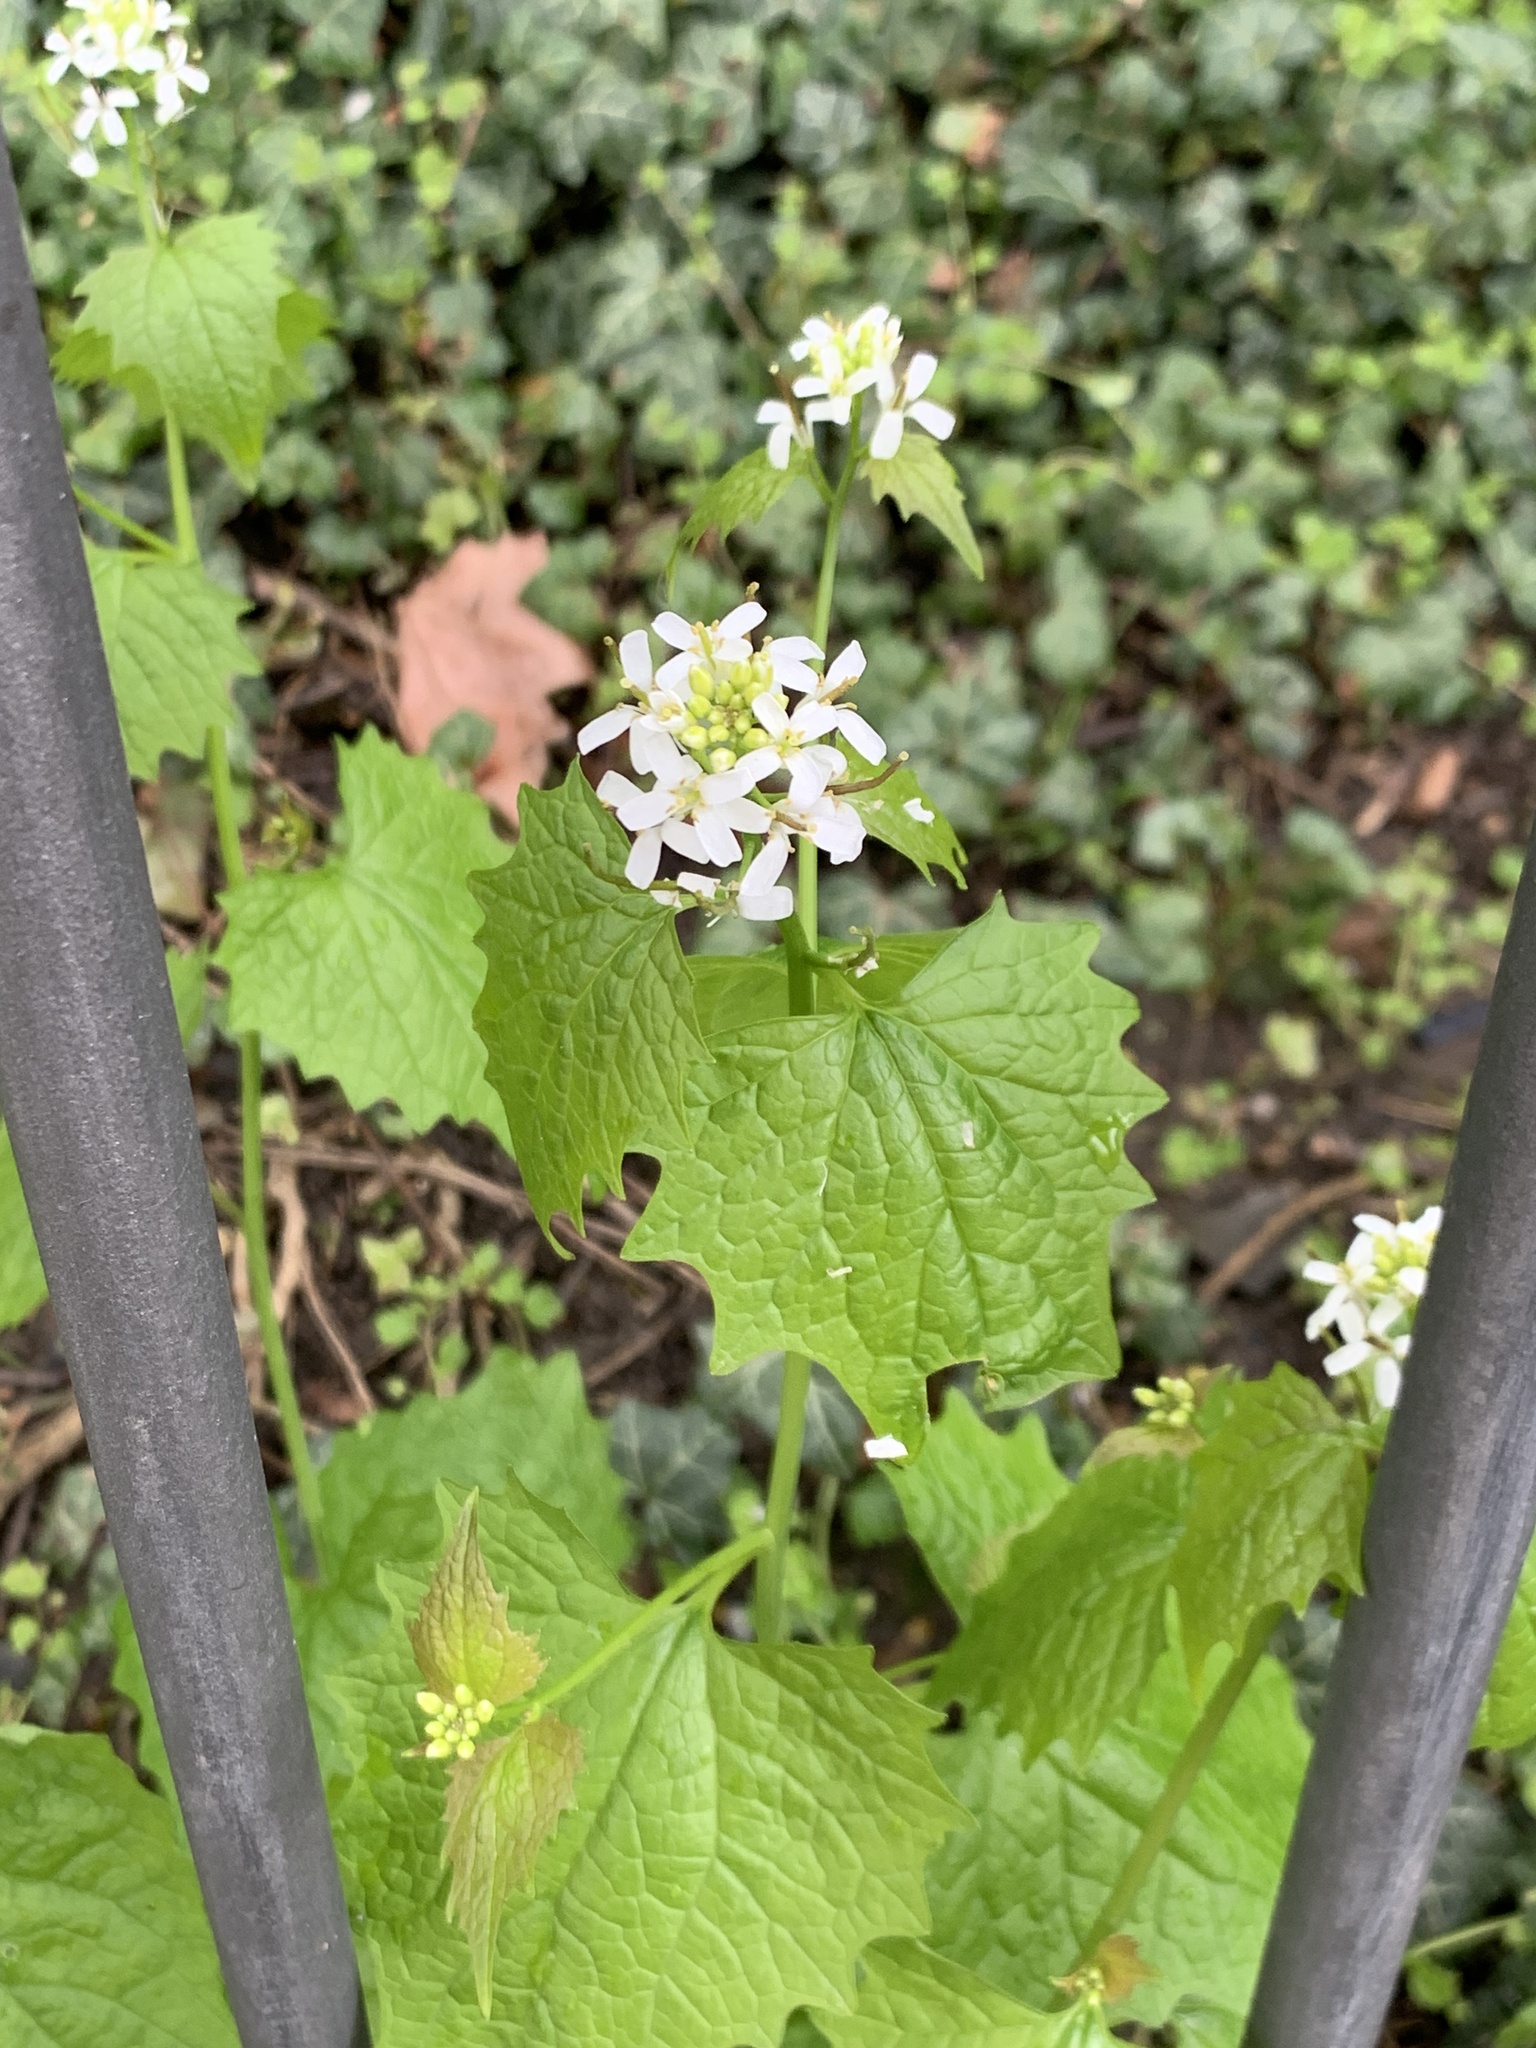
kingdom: Plantae
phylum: Tracheophyta
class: Magnoliopsida
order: Brassicales
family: Brassicaceae
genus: Alliaria
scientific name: Alliaria petiolata
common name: Garlic mustard
